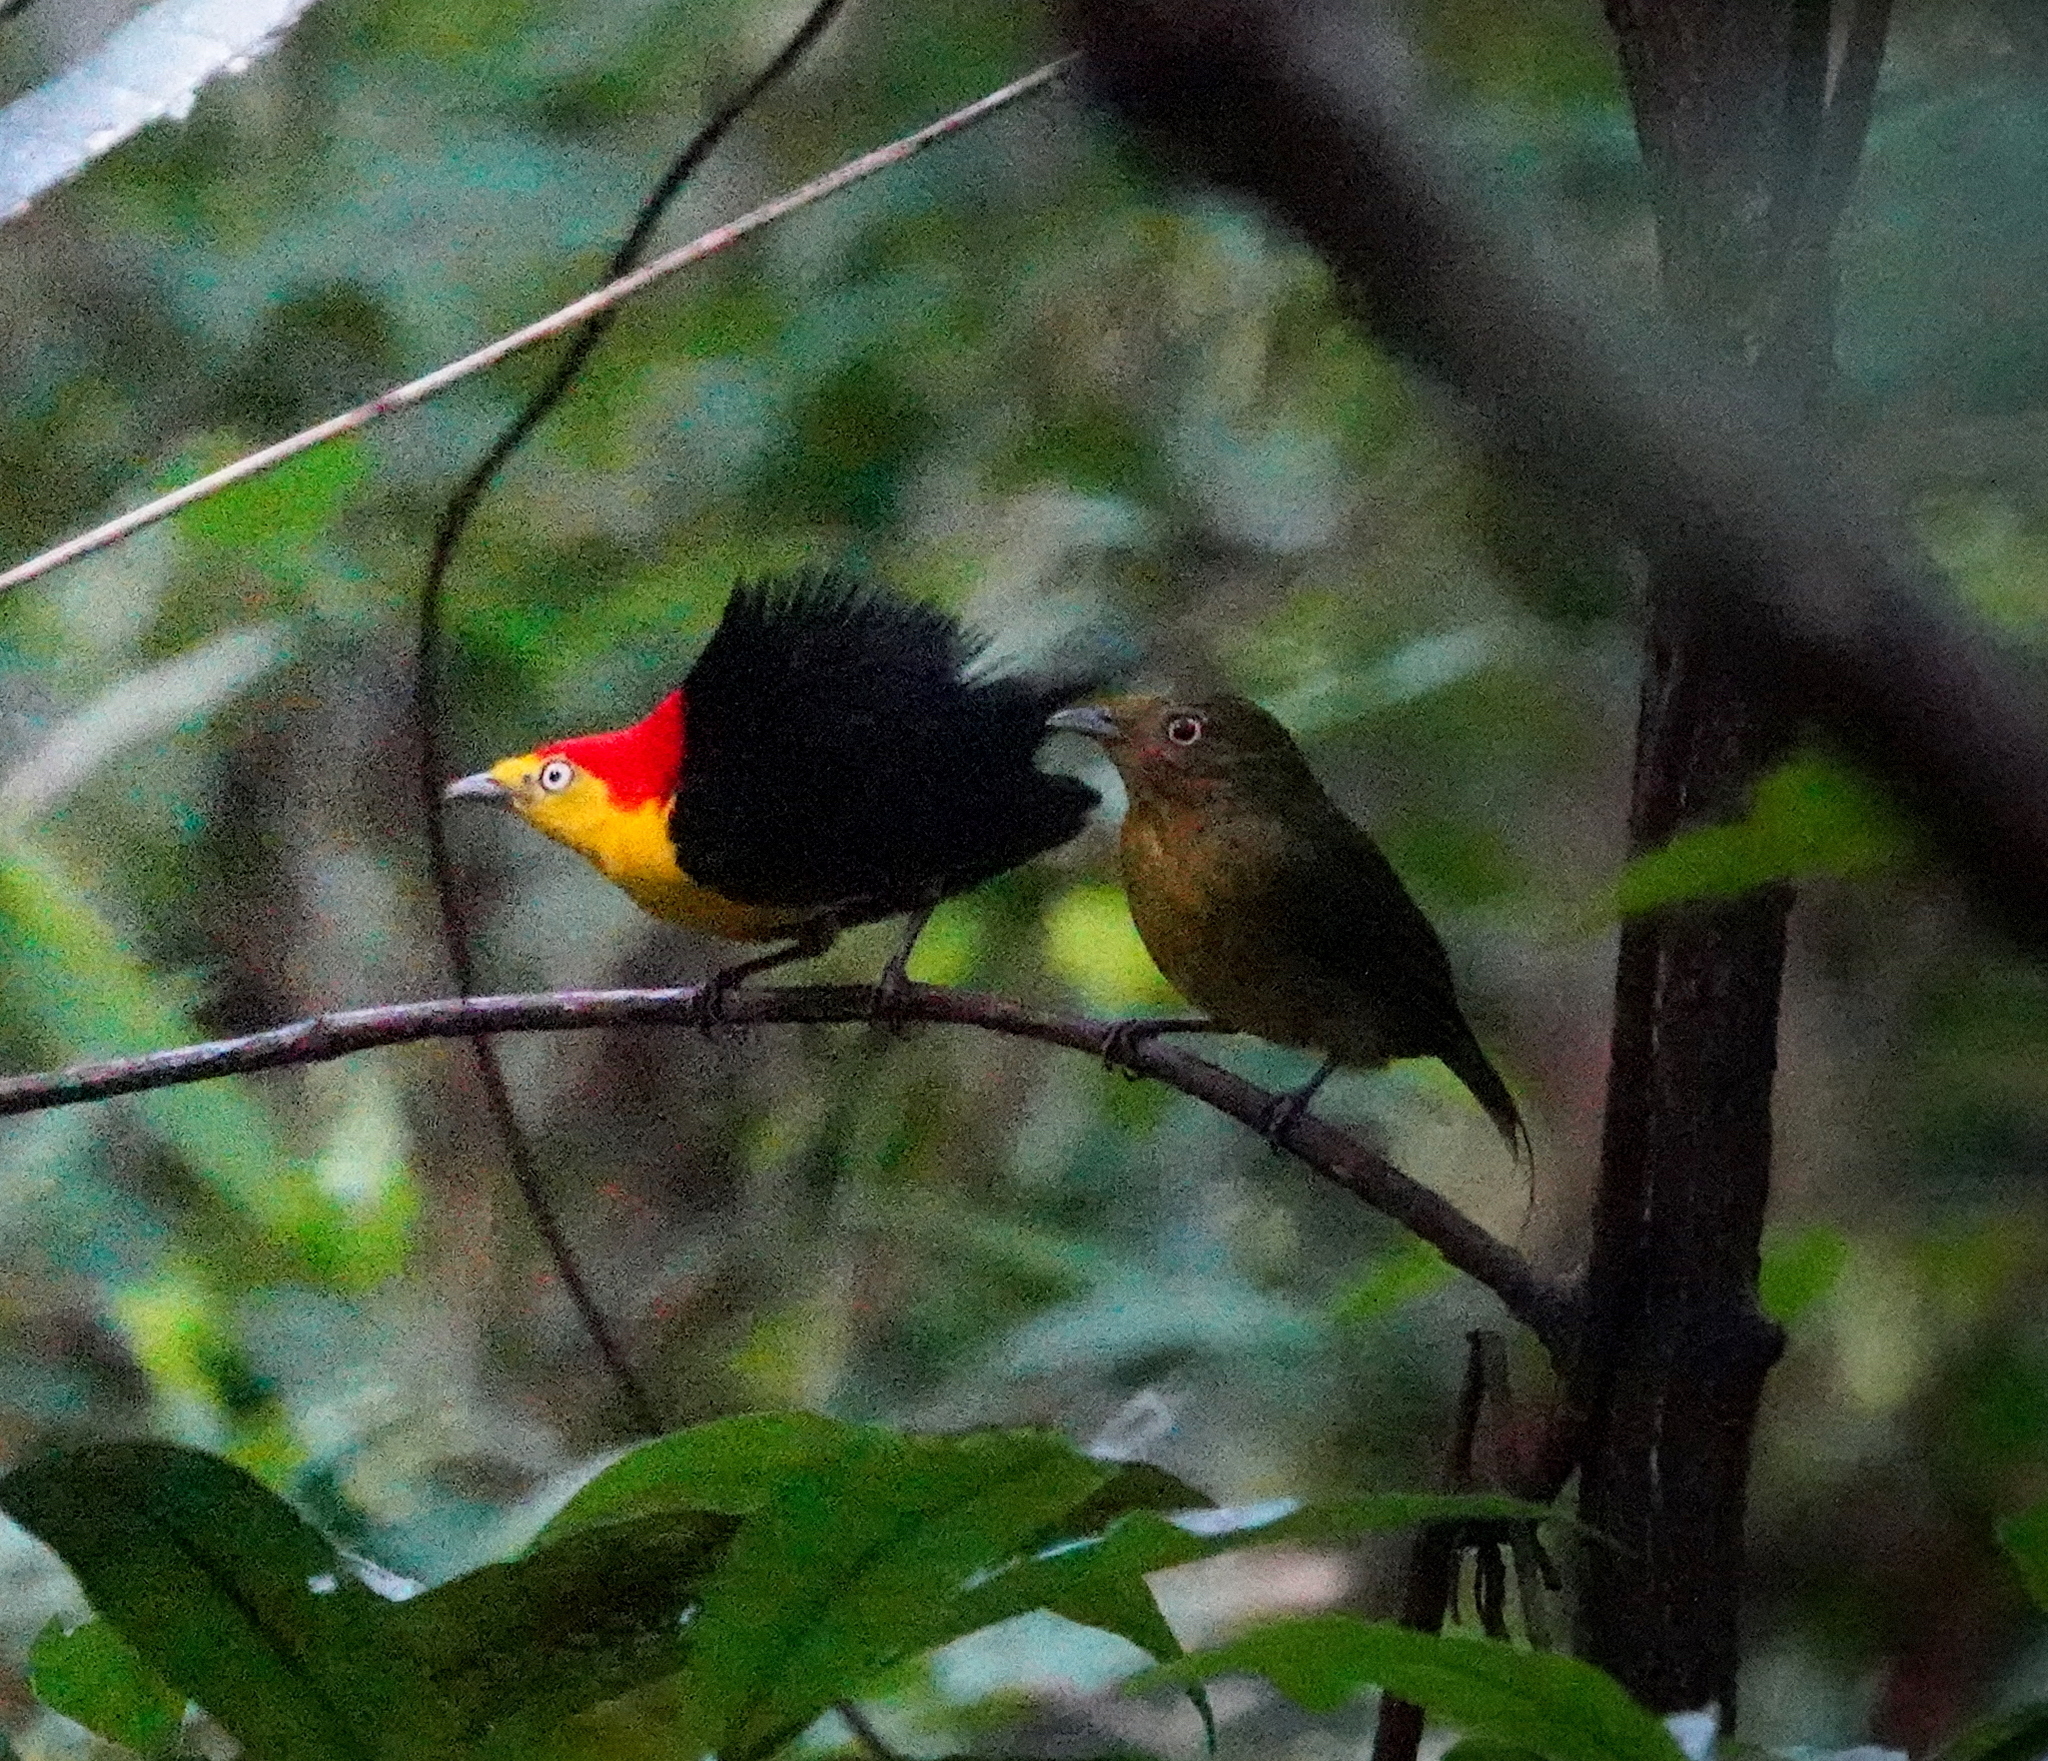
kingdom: Animalia
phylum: Chordata
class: Aves
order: Passeriformes
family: Pipridae
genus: Pipra
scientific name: Pipra filicauda
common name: Wire-tailed manakin
